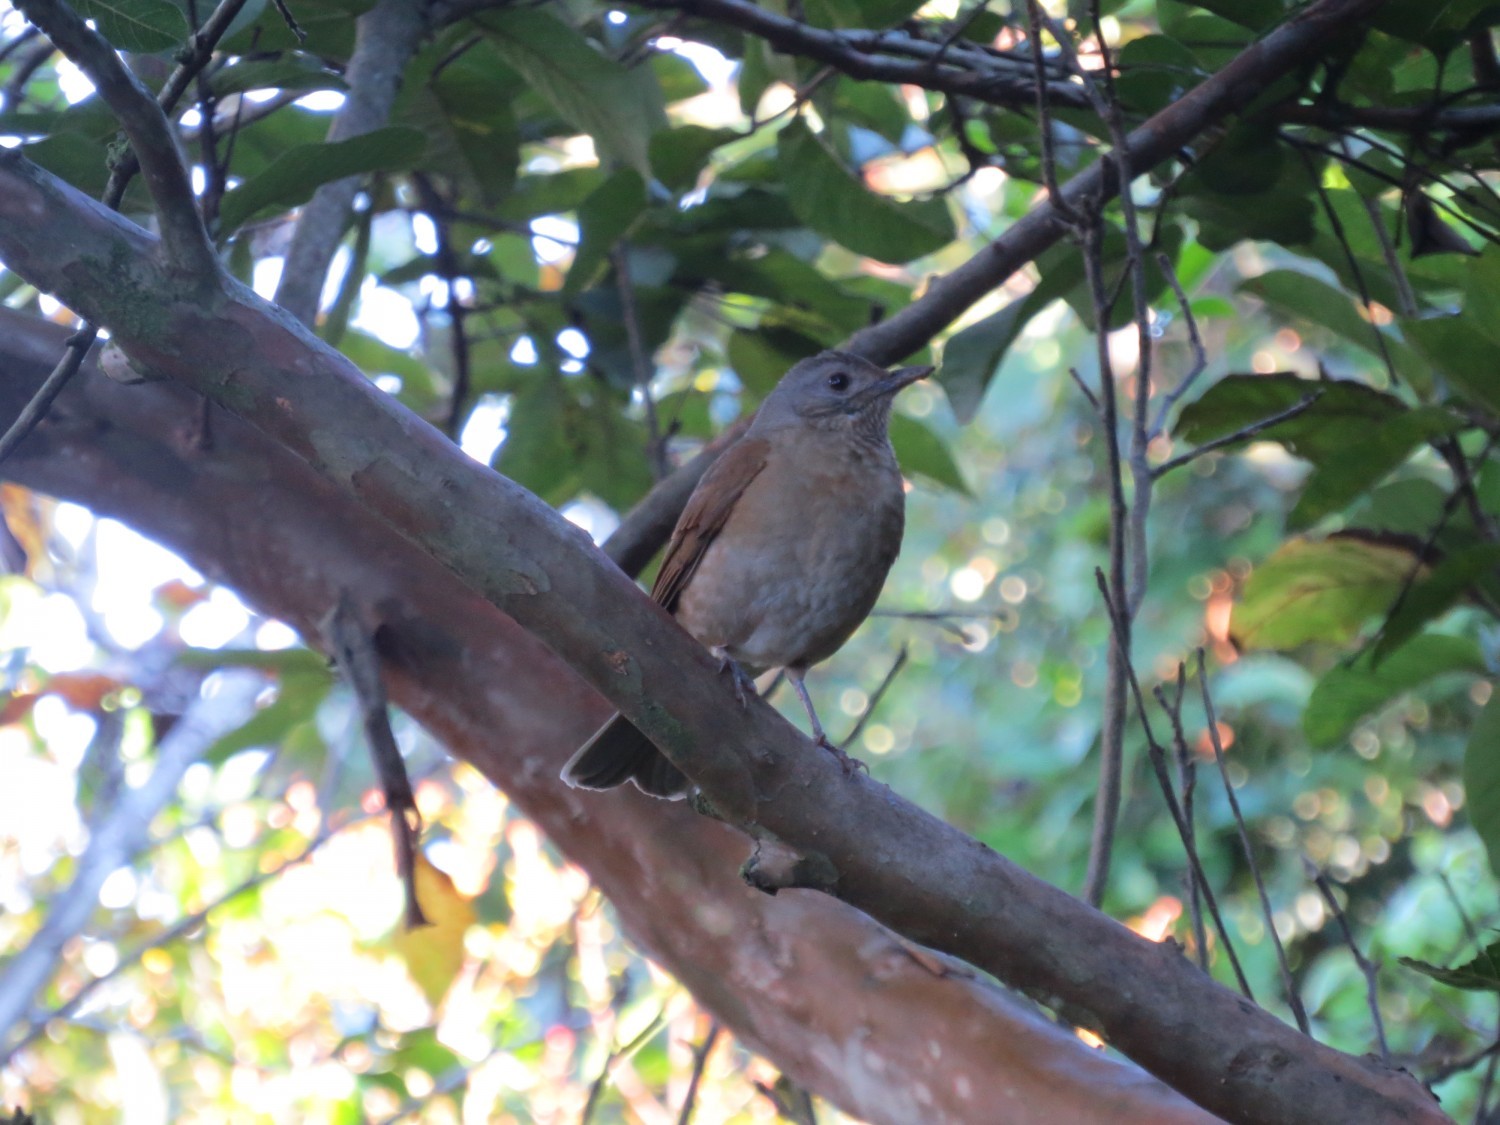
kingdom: Animalia
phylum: Chordata
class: Aves
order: Passeriformes
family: Turdidae
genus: Turdus
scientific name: Turdus leucomelas
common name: Pale-breasted thrush
